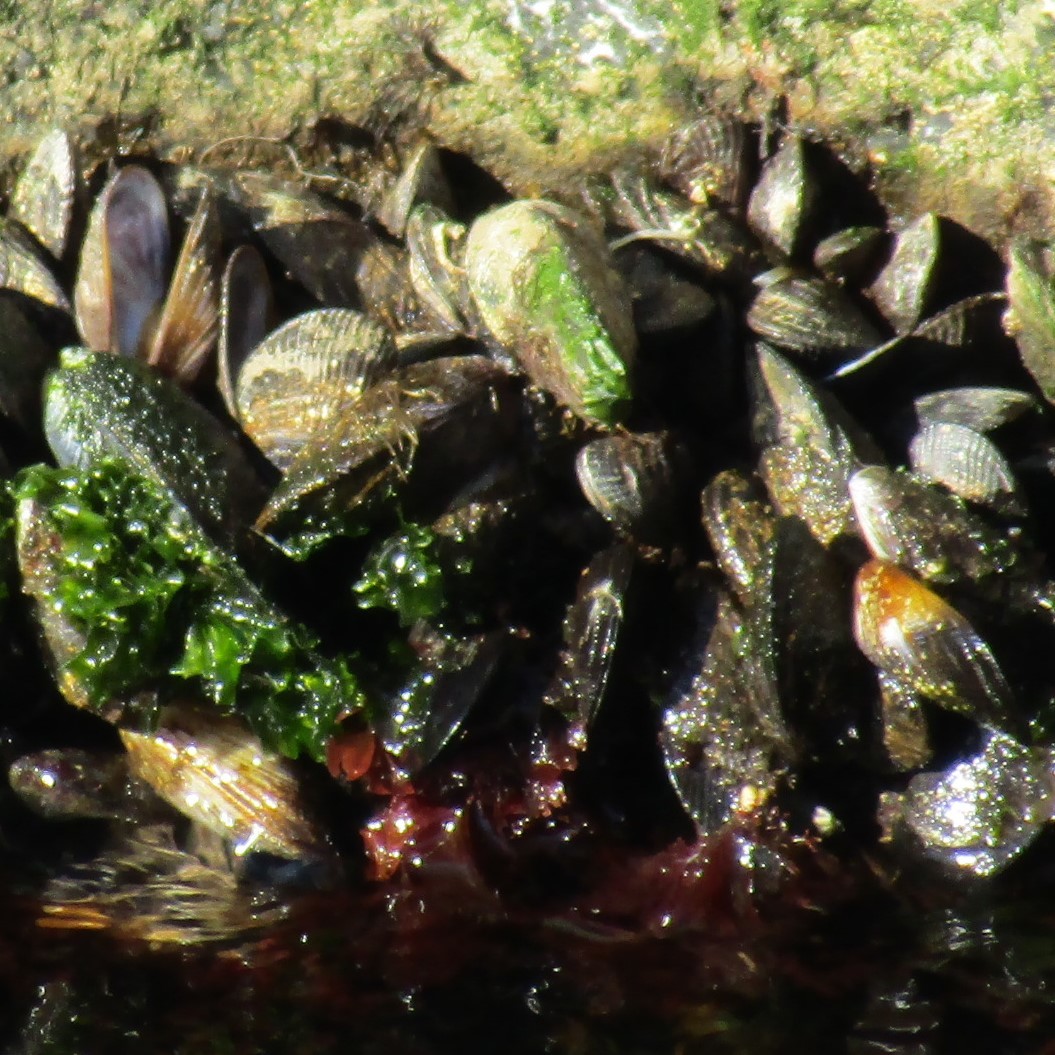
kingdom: Animalia
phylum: Mollusca
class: Bivalvia
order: Mytilida
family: Mytilidae
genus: Aulacomya
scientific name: Aulacomya maoriana
